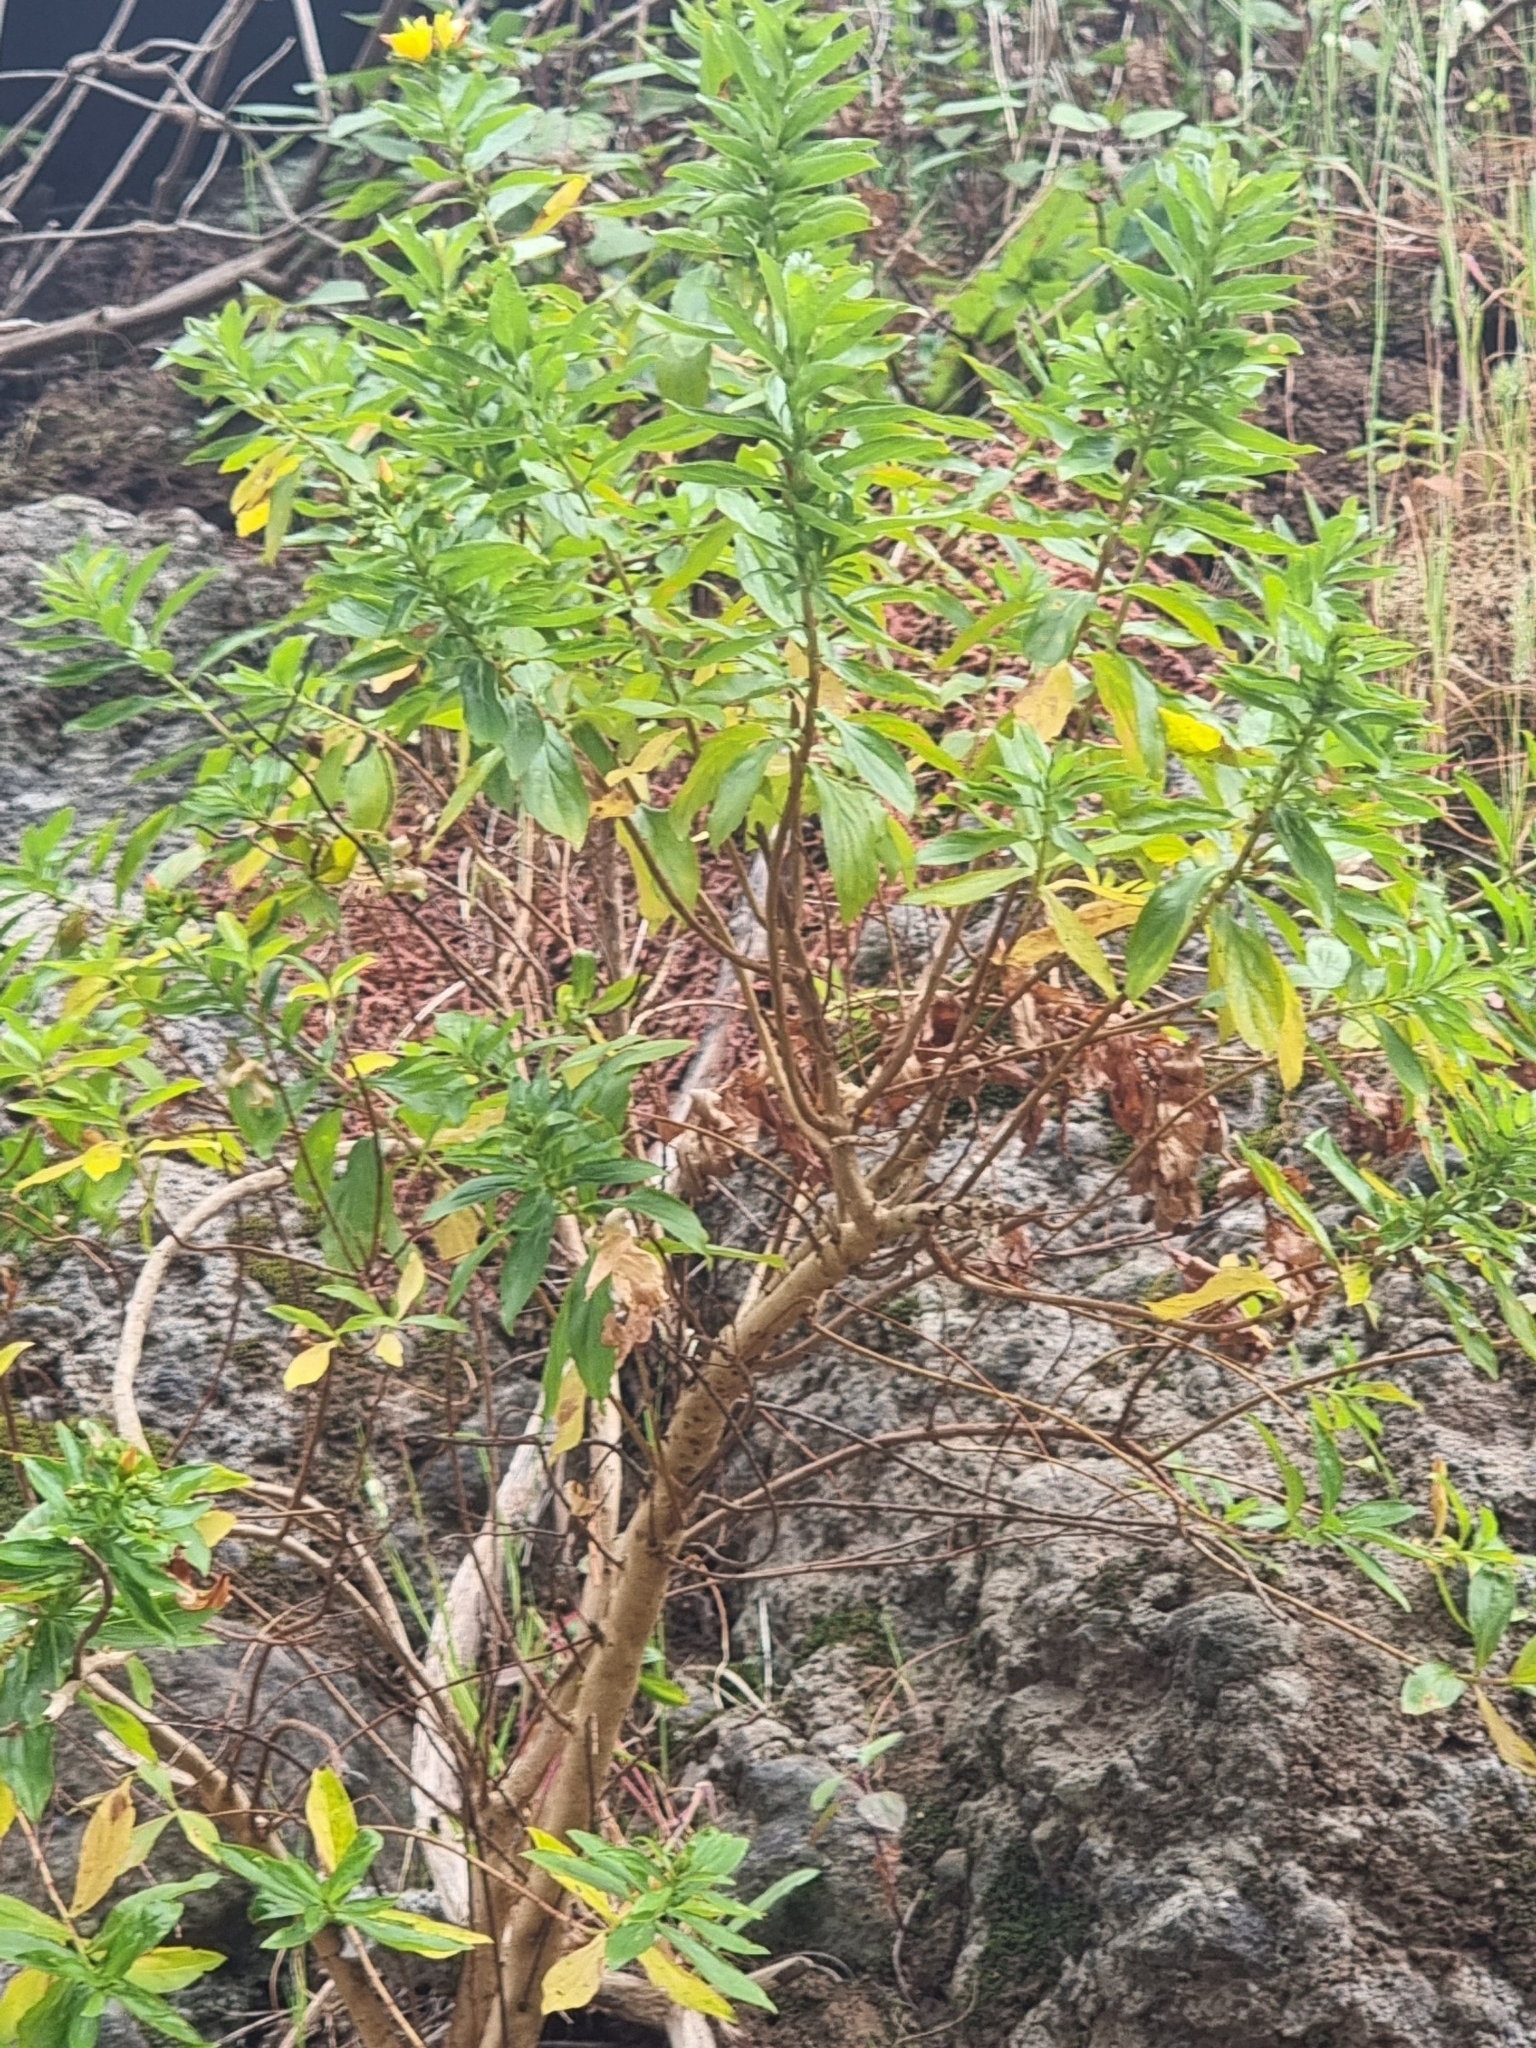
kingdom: Plantae
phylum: Tracheophyta
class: Magnoliopsida
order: Malpighiales
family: Hypericaceae
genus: Hypericum
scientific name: Hypericum glandulosum
